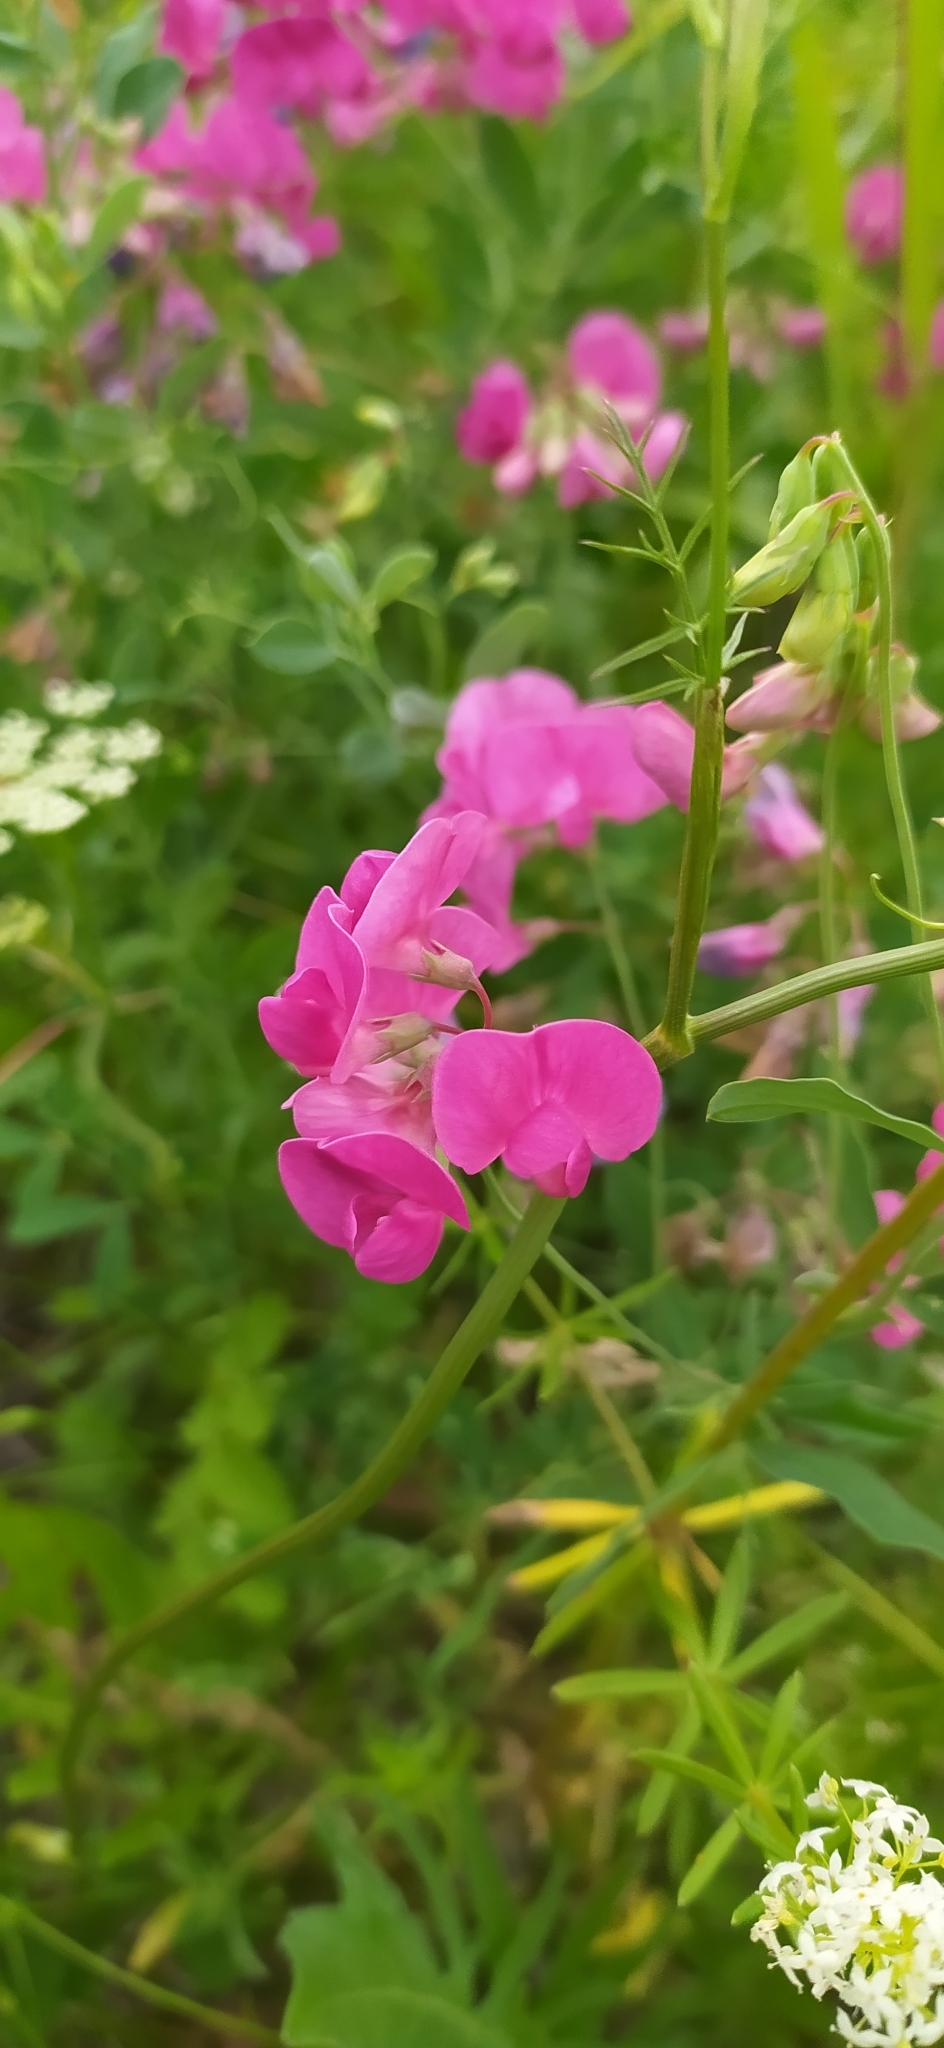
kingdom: Plantae
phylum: Tracheophyta
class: Magnoliopsida
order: Fabales
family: Fabaceae
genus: Lathyrus
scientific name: Lathyrus tuberosus
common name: Tuberous pea
